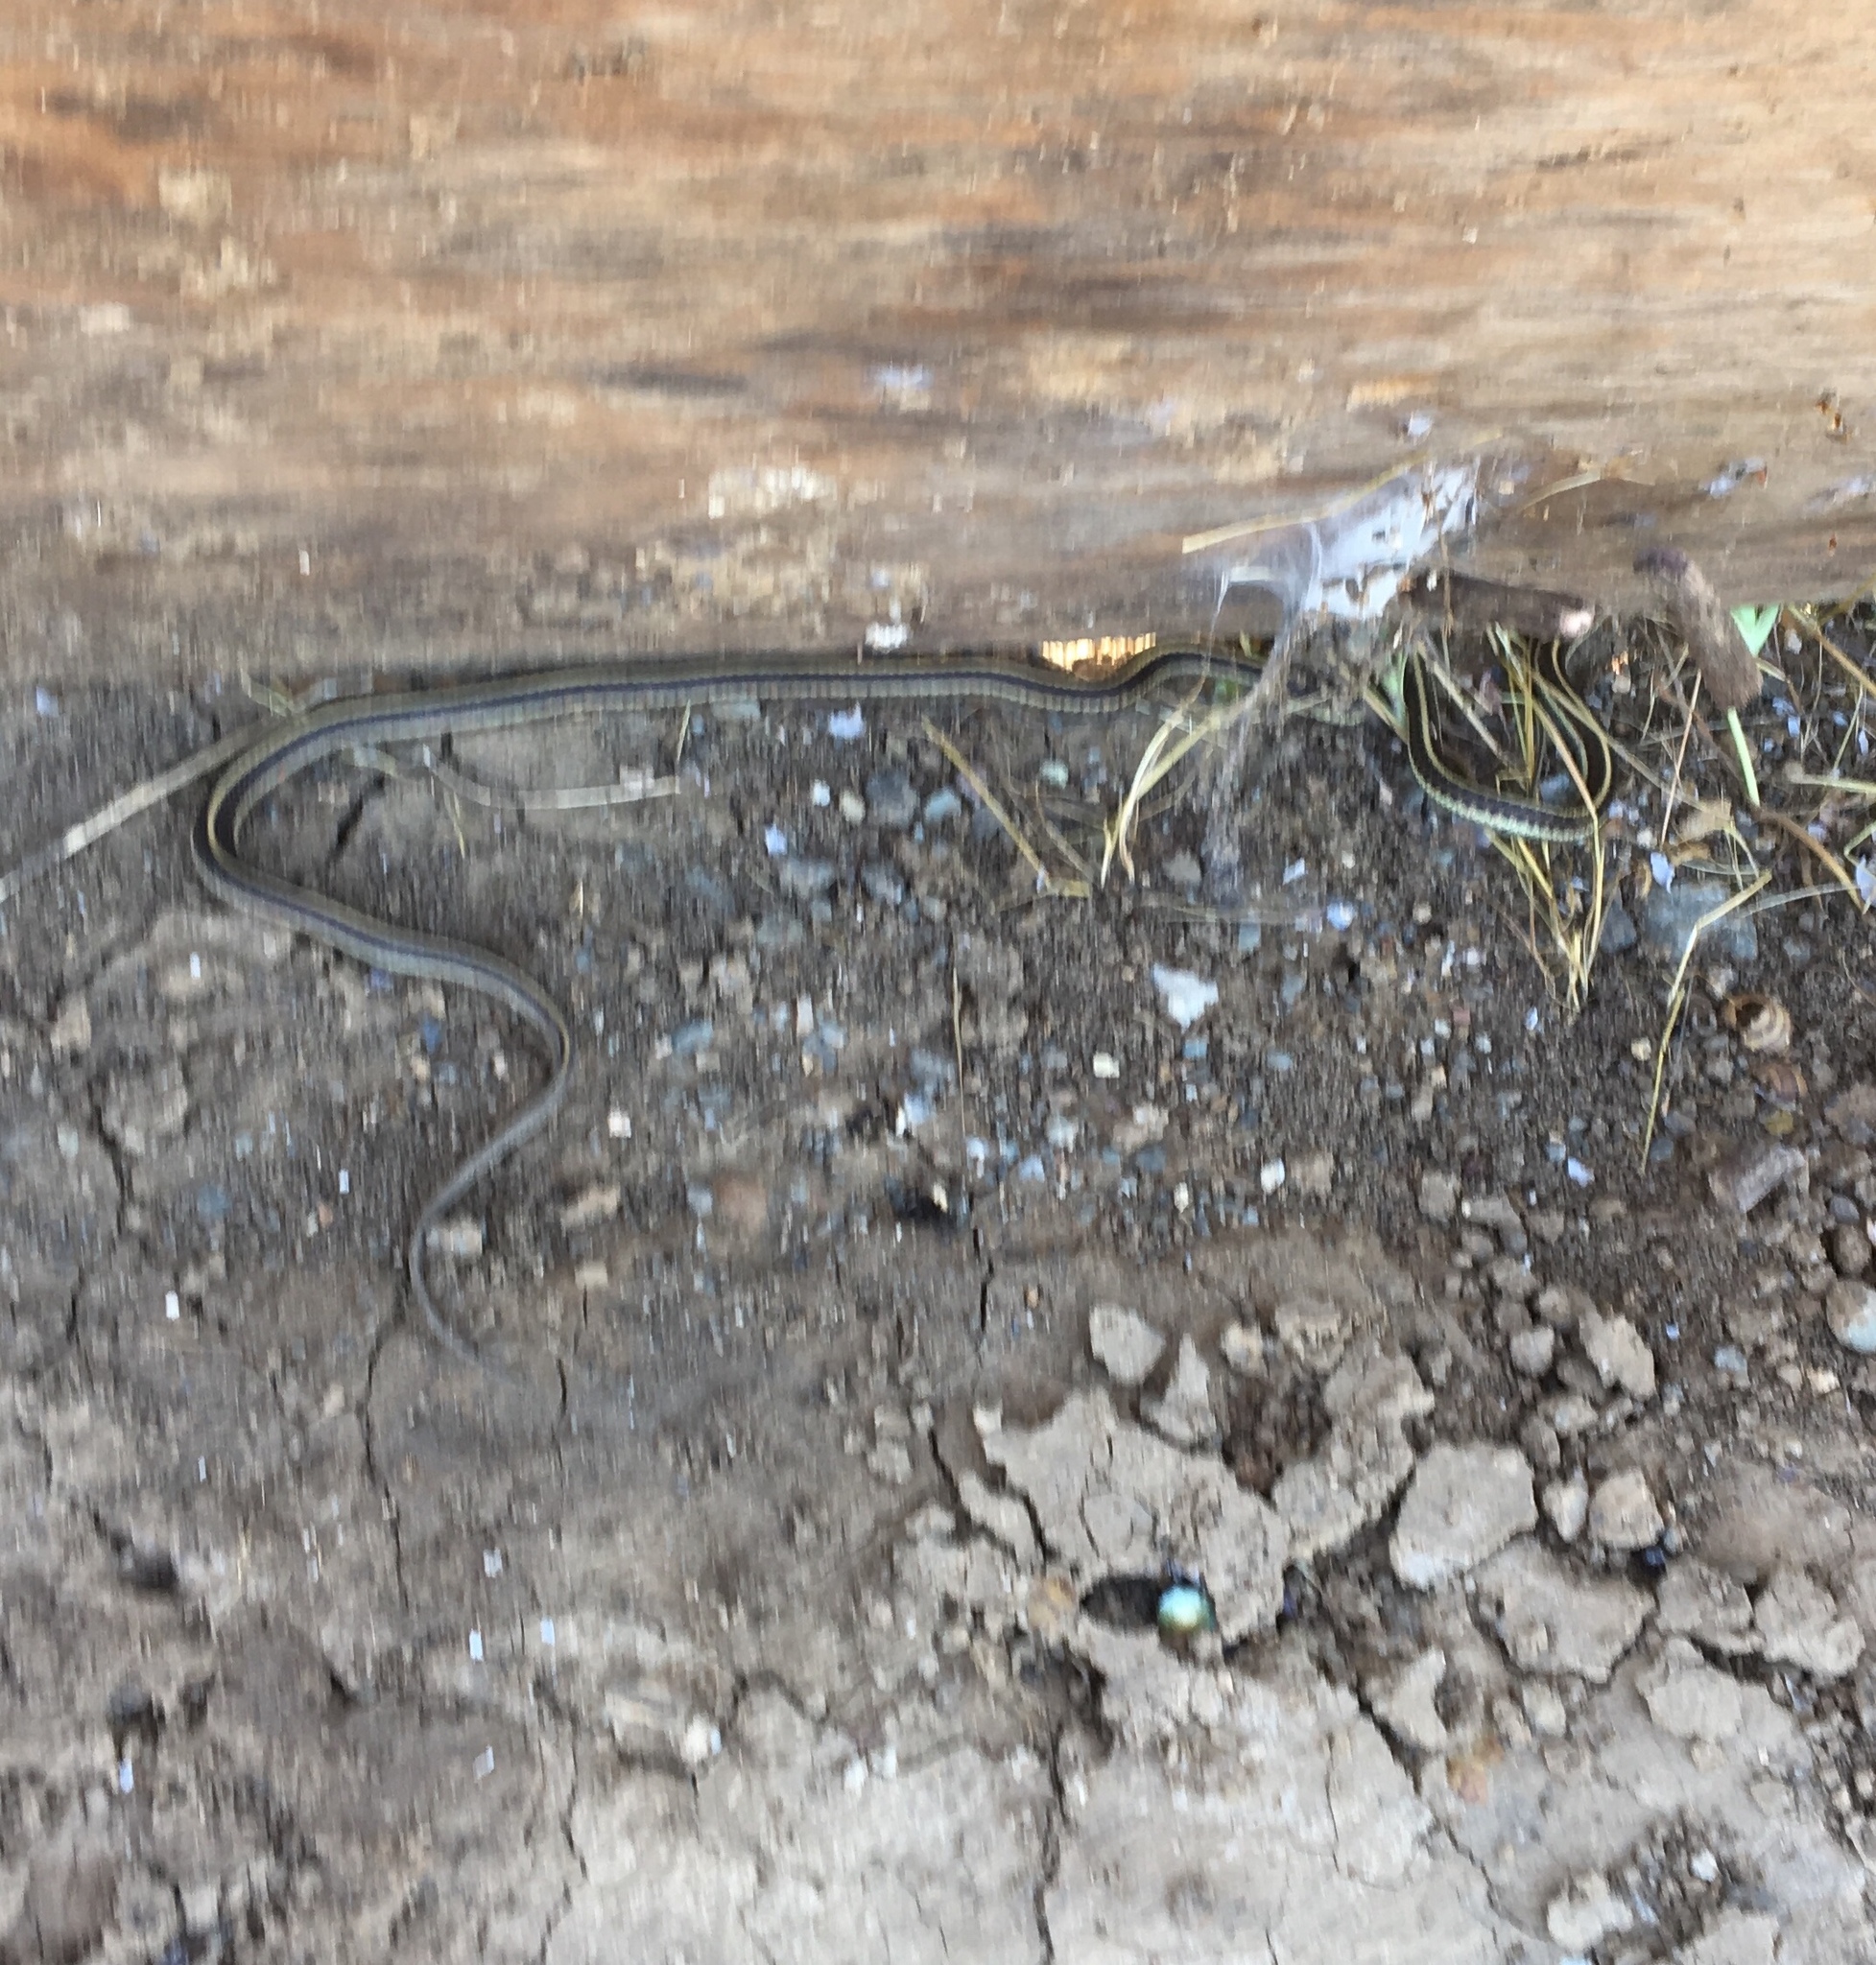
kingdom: Animalia
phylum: Chordata
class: Squamata
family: Colubridae
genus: Thamnophis
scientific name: Thamnophis atratus
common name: Pacific coast aquatic garter snake
